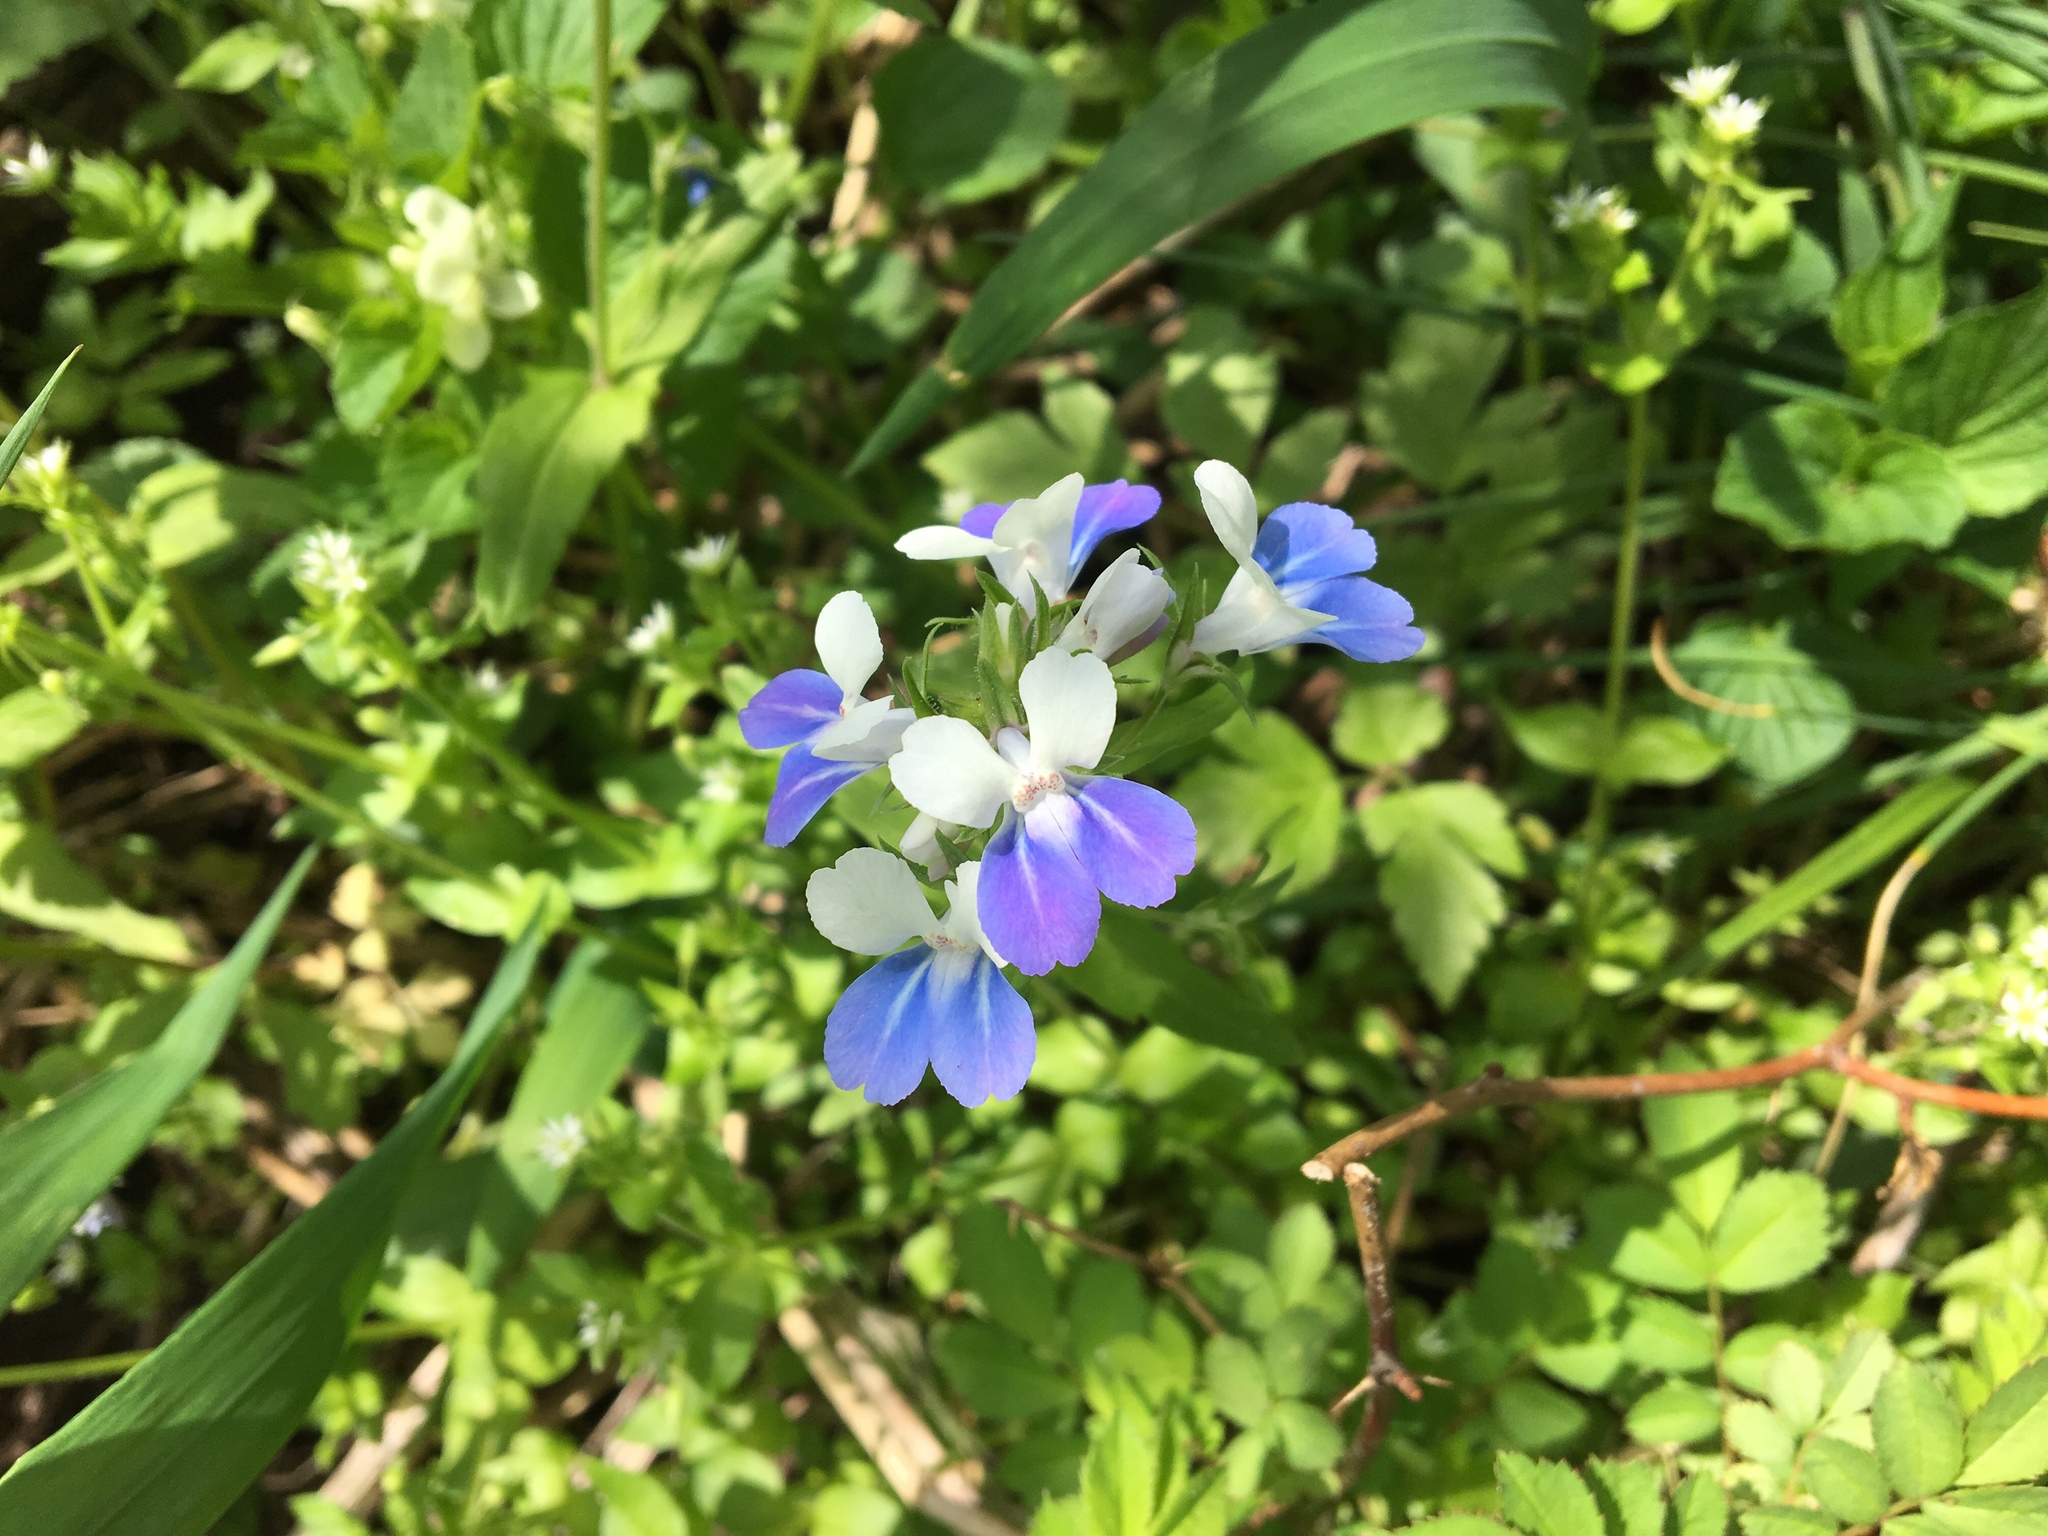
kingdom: Plantae
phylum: Tracheophyta
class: Magnoliopsida
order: Lamiales
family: Plantaginaceae
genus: Collinsia
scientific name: Collinsia verna
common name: Broad-leaved collinsia
